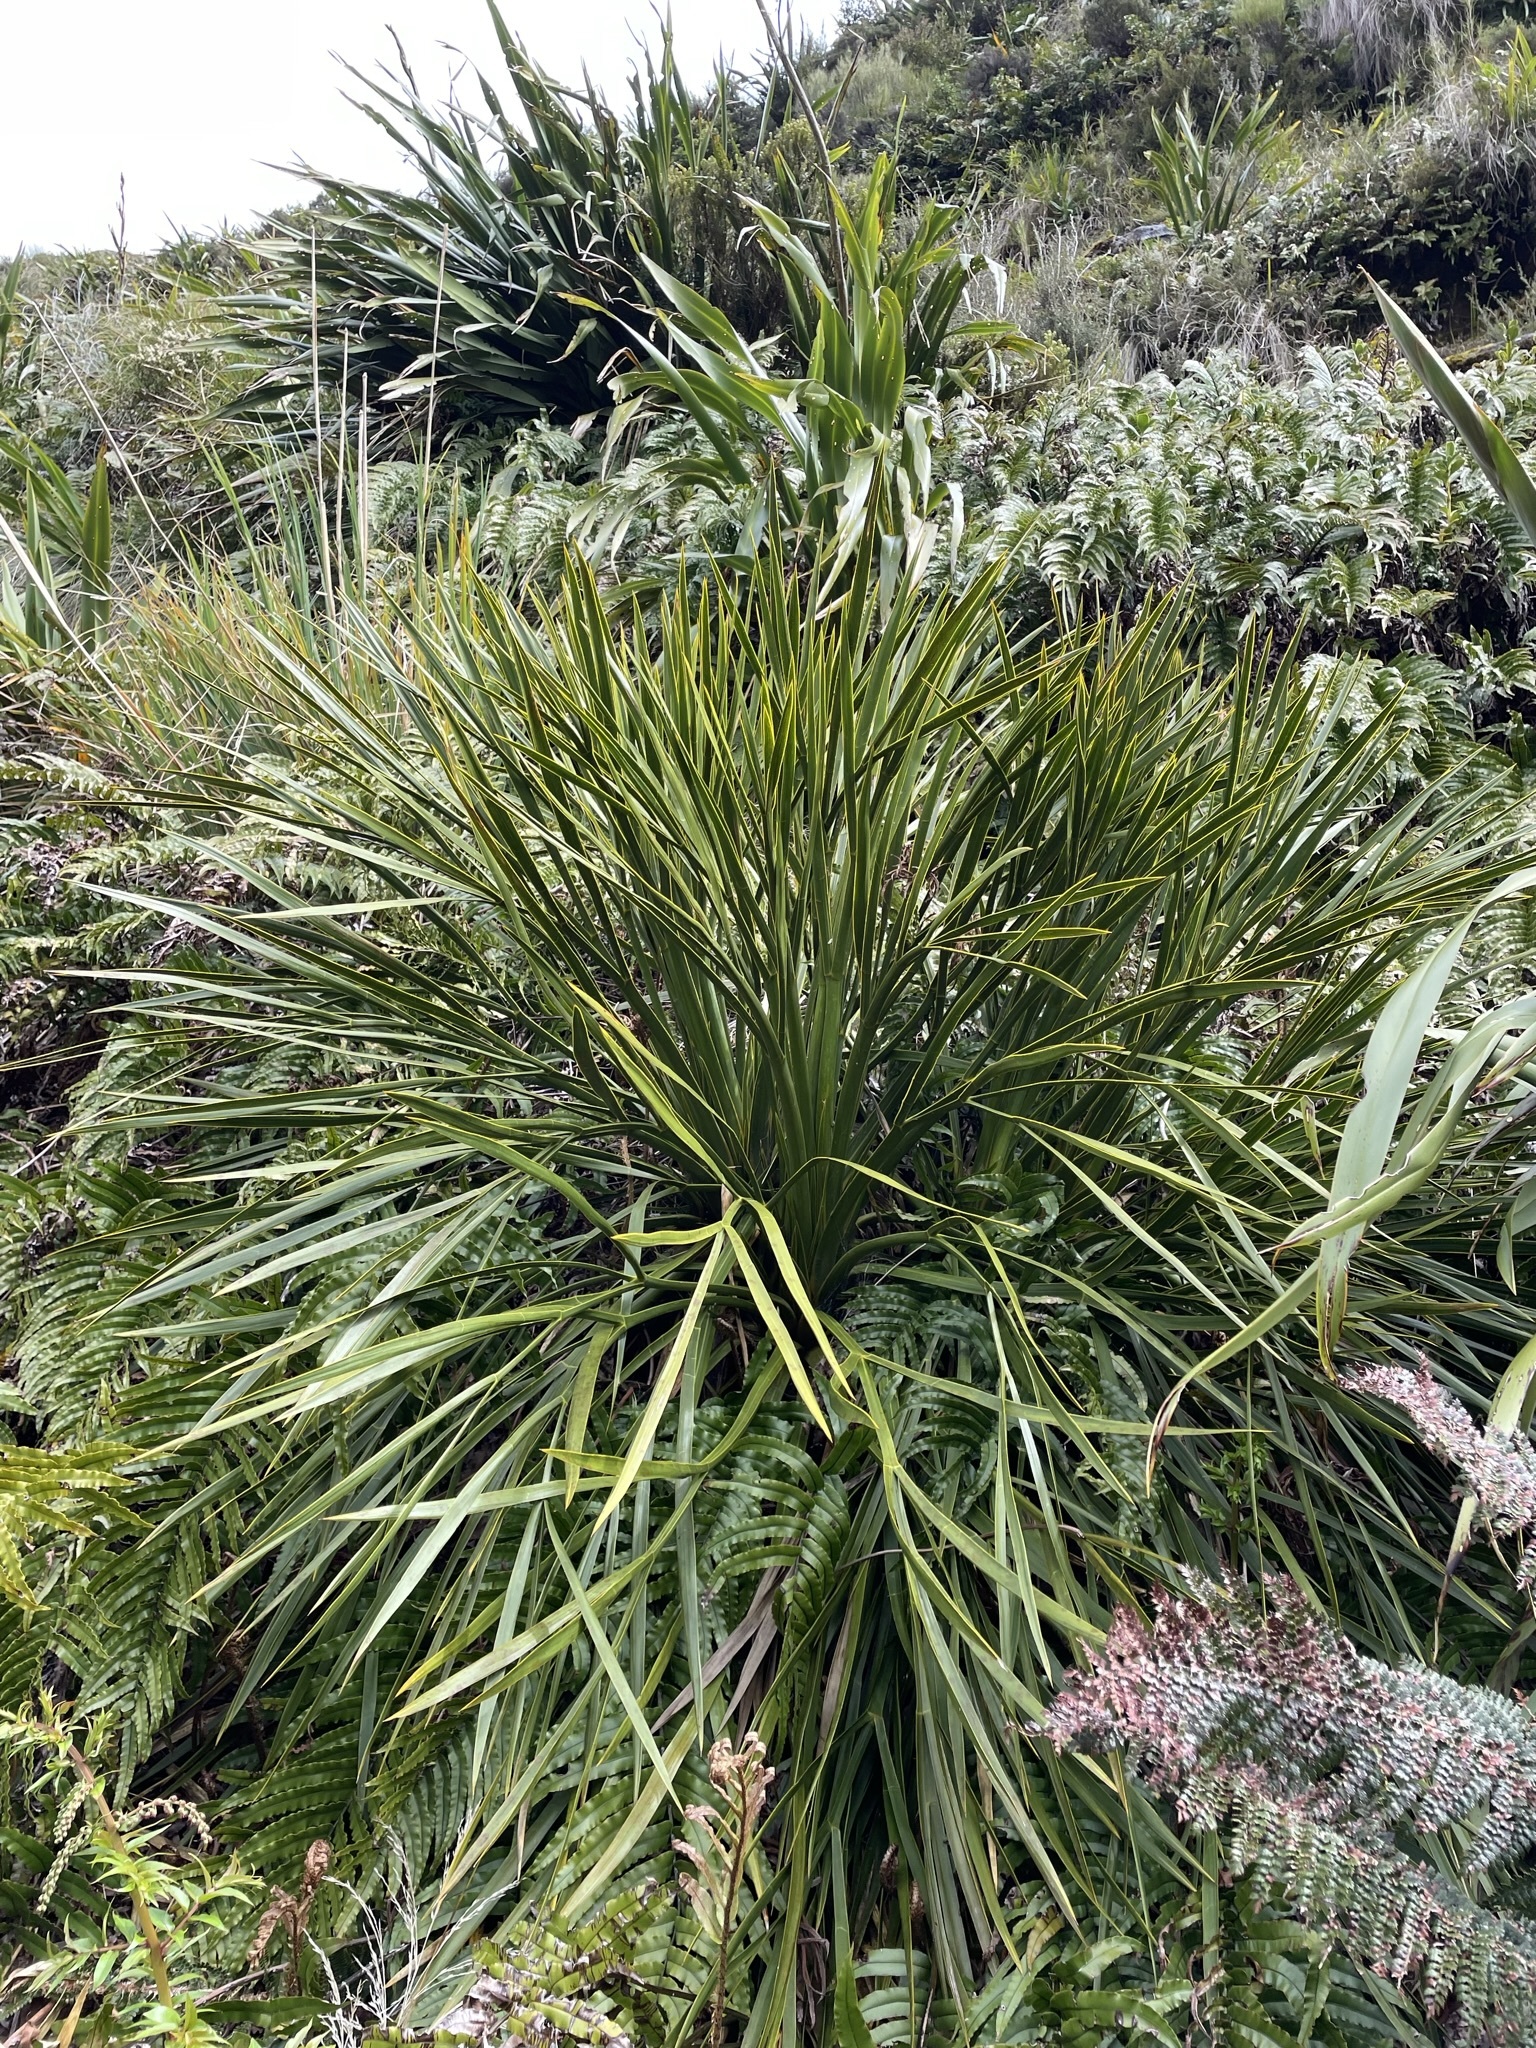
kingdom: Plantae
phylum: Tracheophyta
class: Magnoliopsida
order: Apiales
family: Apiaceae
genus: Aciphylla
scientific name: Aciphylla horrida
